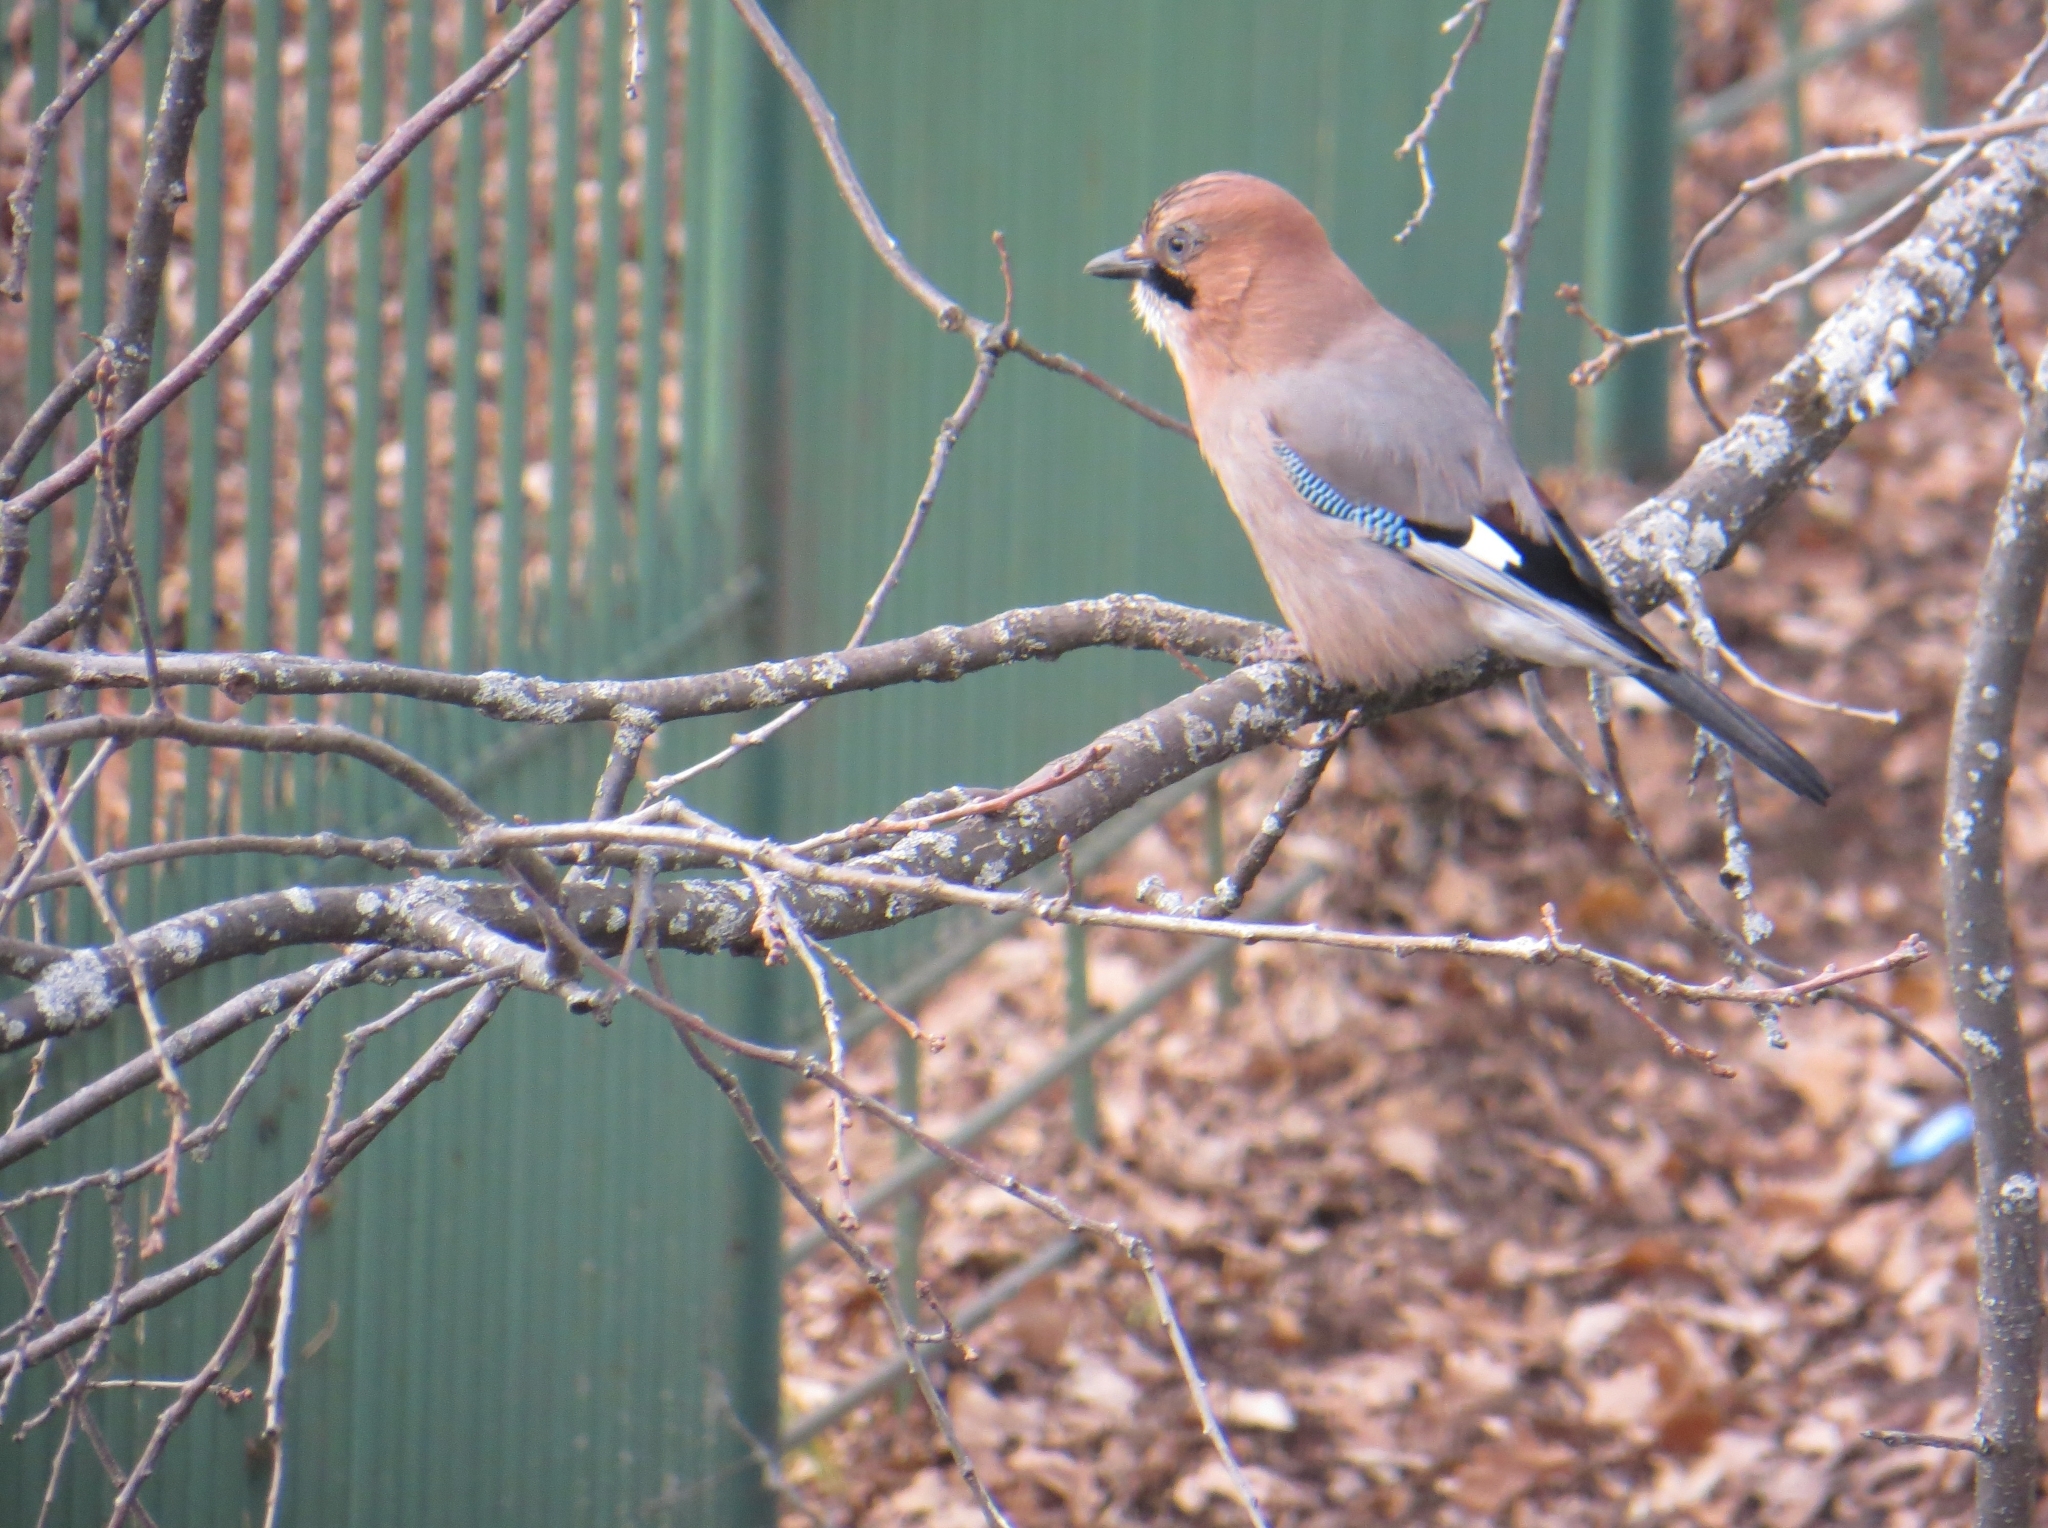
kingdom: Animalia
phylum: Chordata
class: Aves
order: Passeriformes
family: Corvidae
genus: Garrulus
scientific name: Garrulus glandarius
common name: Eurasian jay
